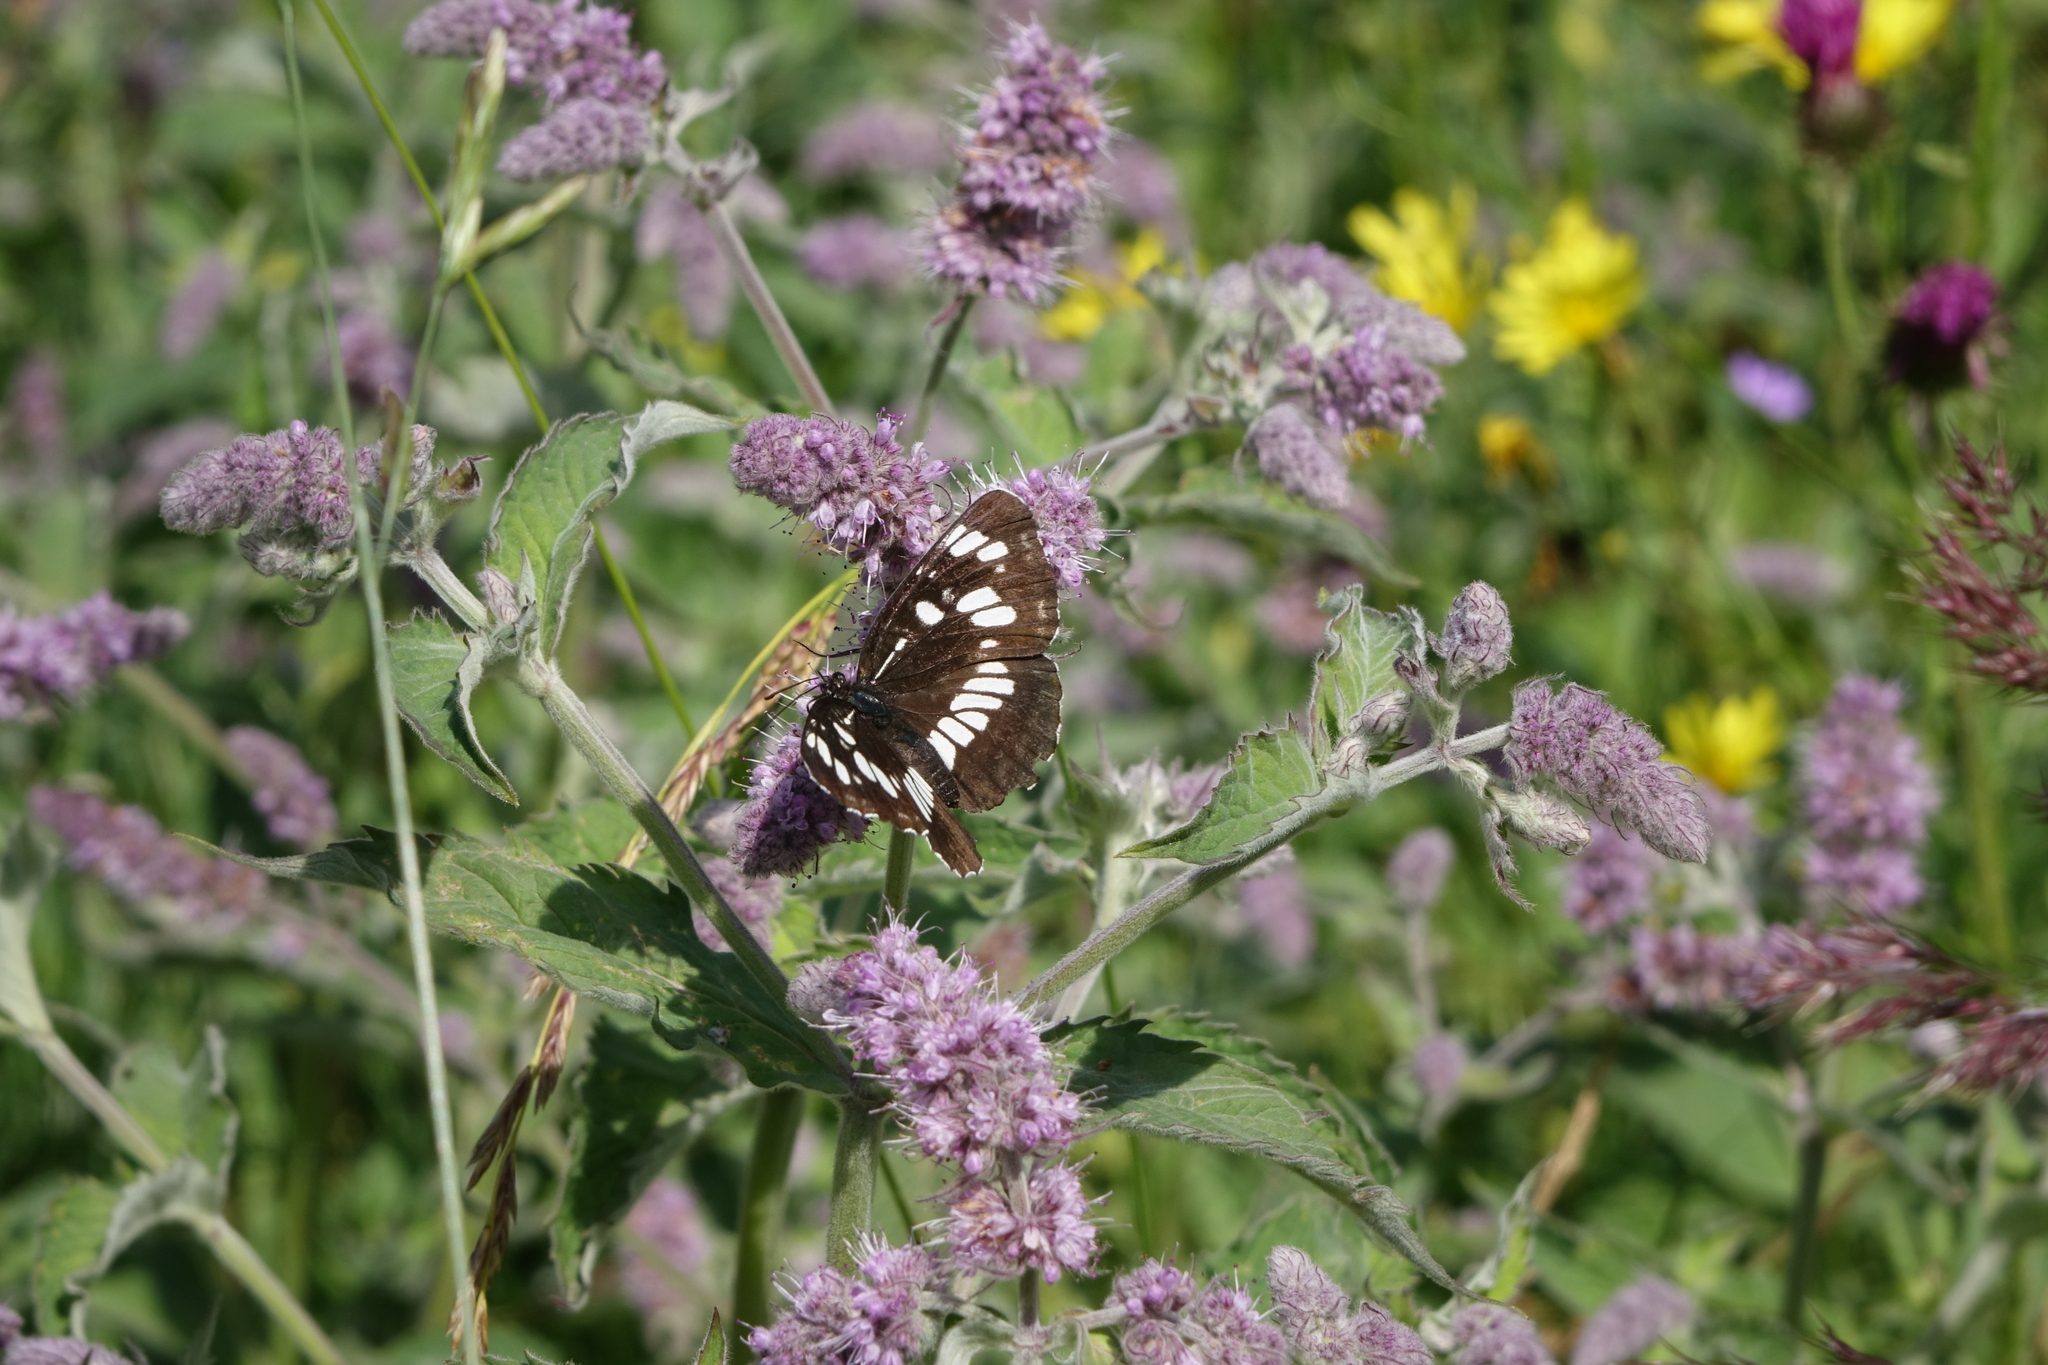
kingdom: Animalia
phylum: Arthropoda
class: Insecta
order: Lepidoptera
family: Nymphalidae
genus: Neptis
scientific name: Neptis rivularis
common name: Hungarian glider
